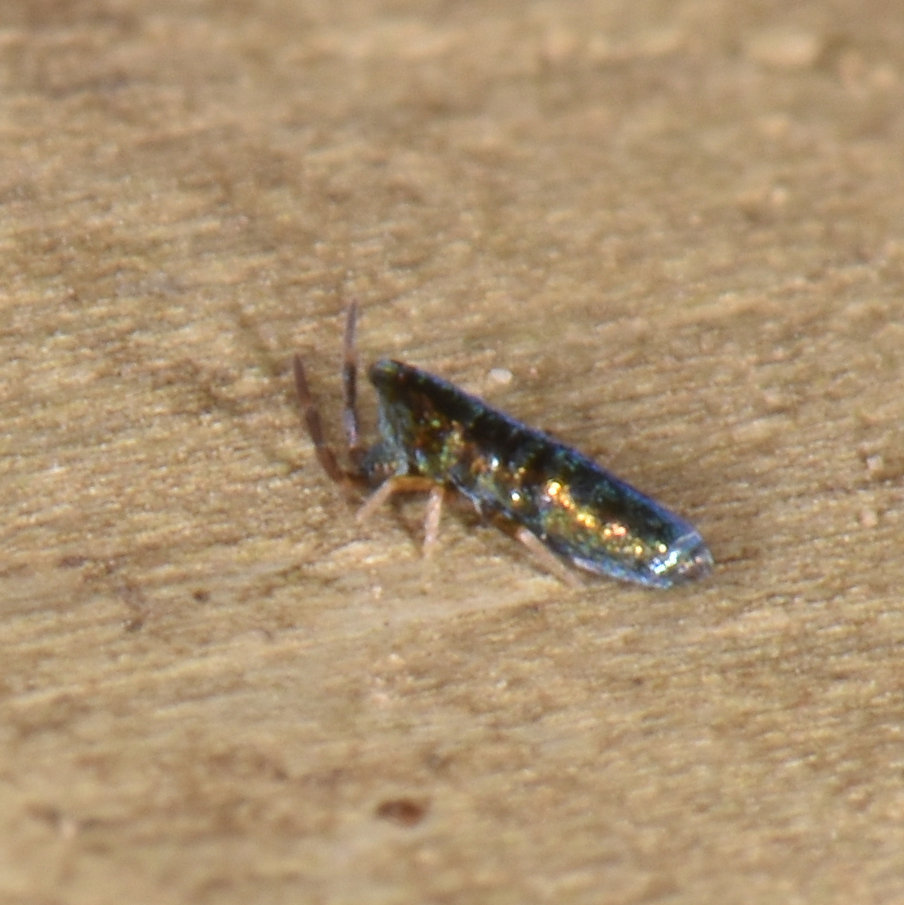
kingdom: Animalia
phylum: Arthropoda
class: Collembola
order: Entomobryomorpha
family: Entomobryidae
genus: Lepidocyrtus
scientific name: Lepidocyrtus paradoxus
